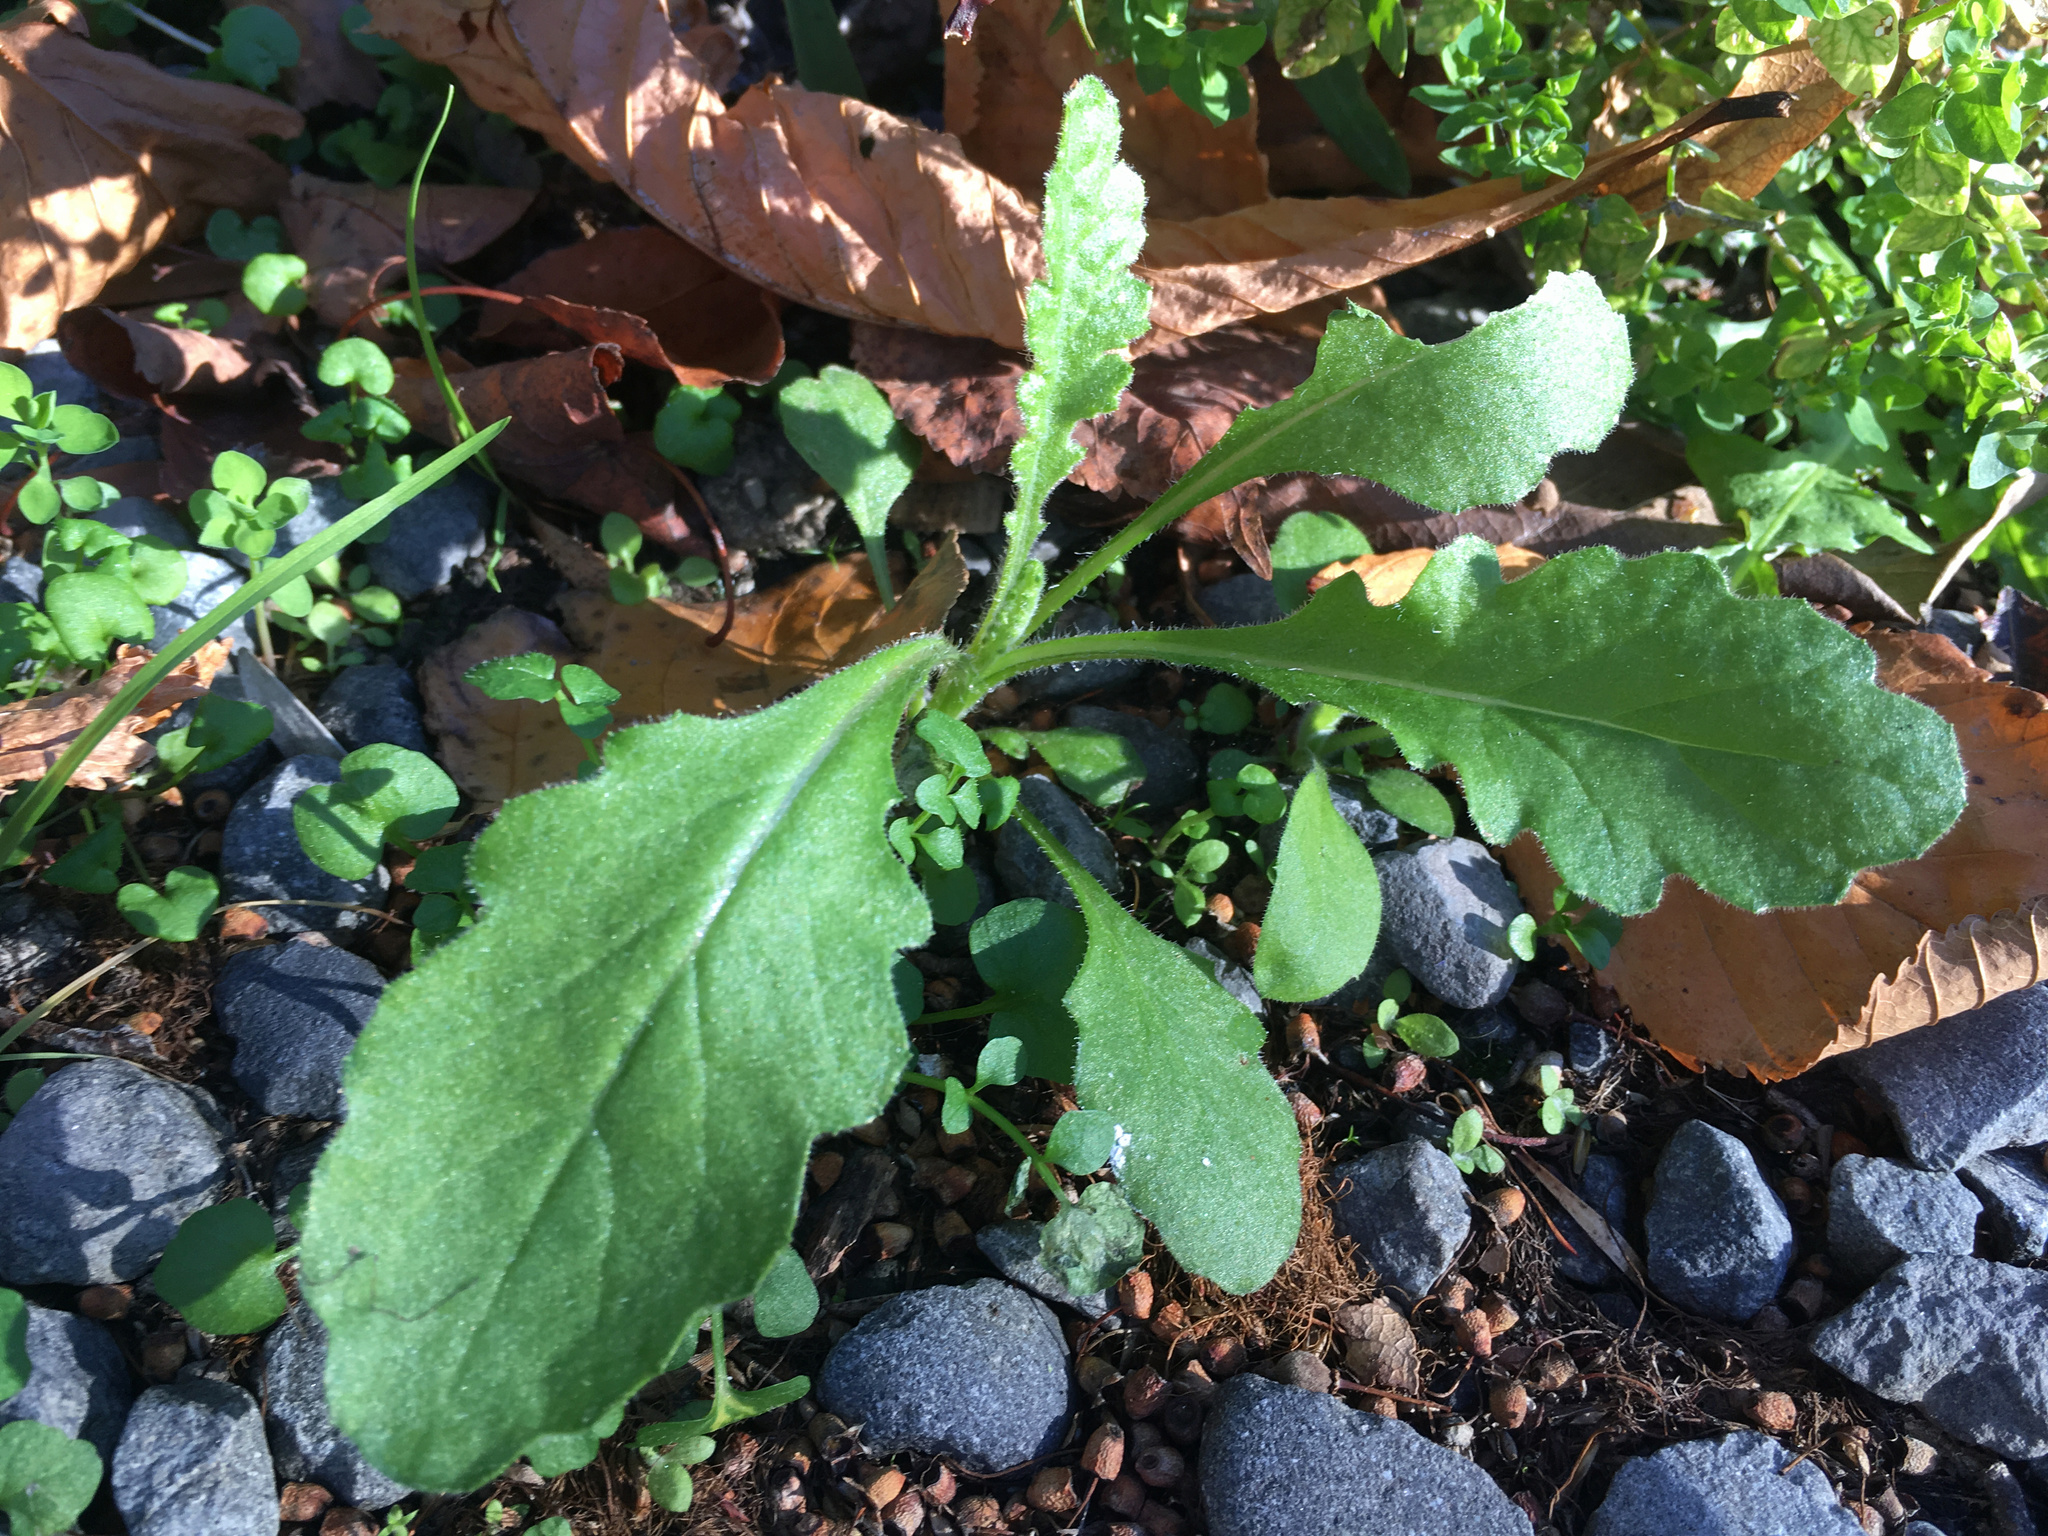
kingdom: Plantae
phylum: Tracheophyta
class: Magnoliopsida
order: Asterales
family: Asteraceae
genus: Senecio
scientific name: Senecio glomeratus
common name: Cutleaf burnweed
